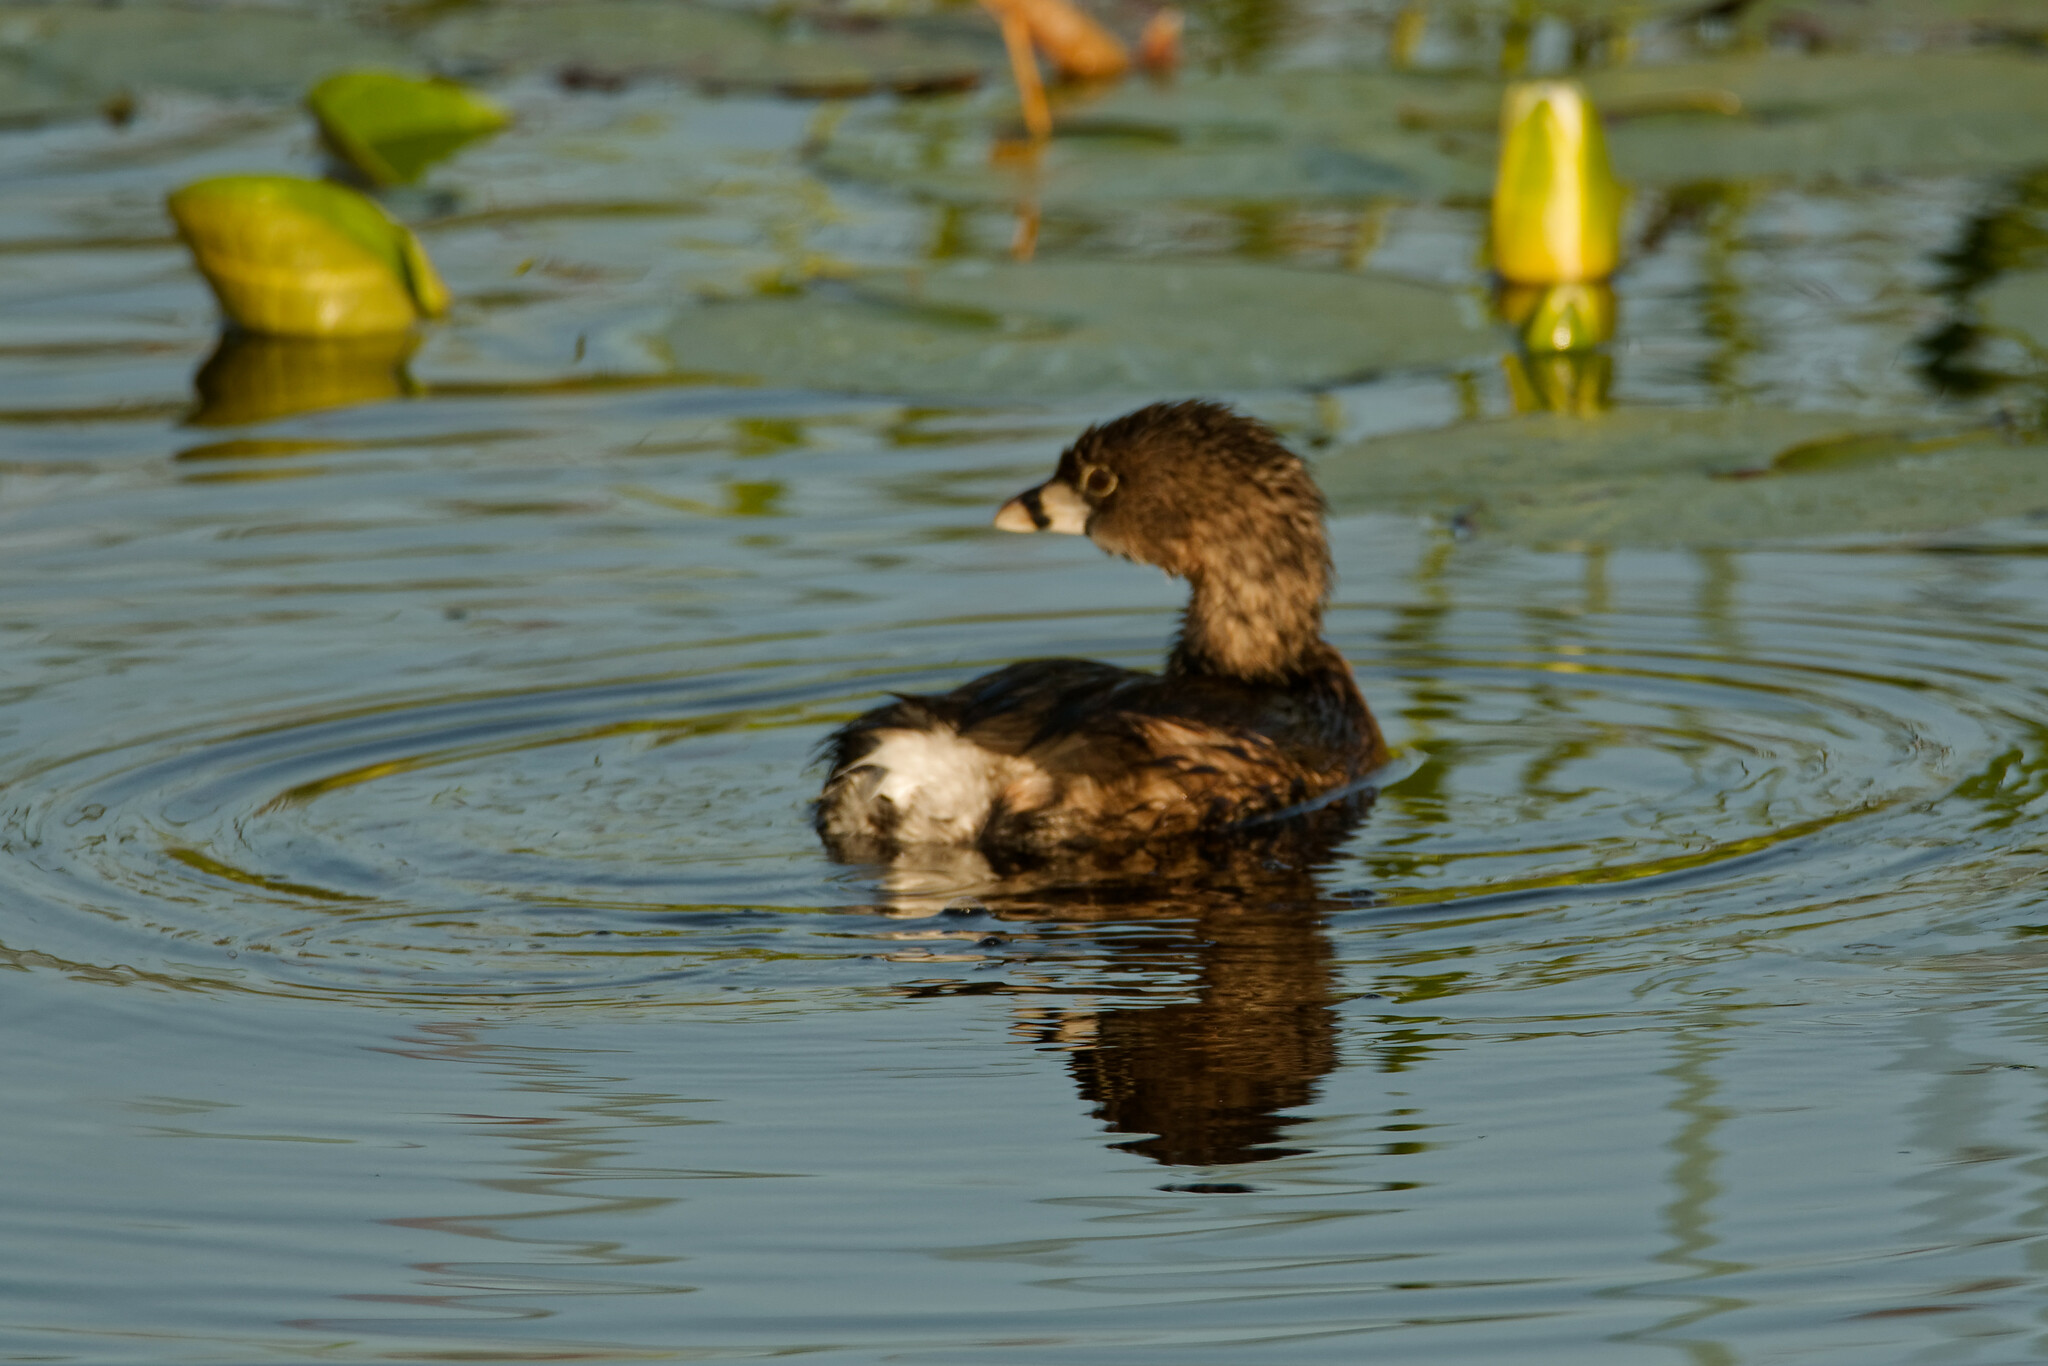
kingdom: Animalia
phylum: Chordata
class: Aves
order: Podicipediformes
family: Podicipedidae
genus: Podilymbus
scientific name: Podilymbus podiceps
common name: Pied-billed grebe
